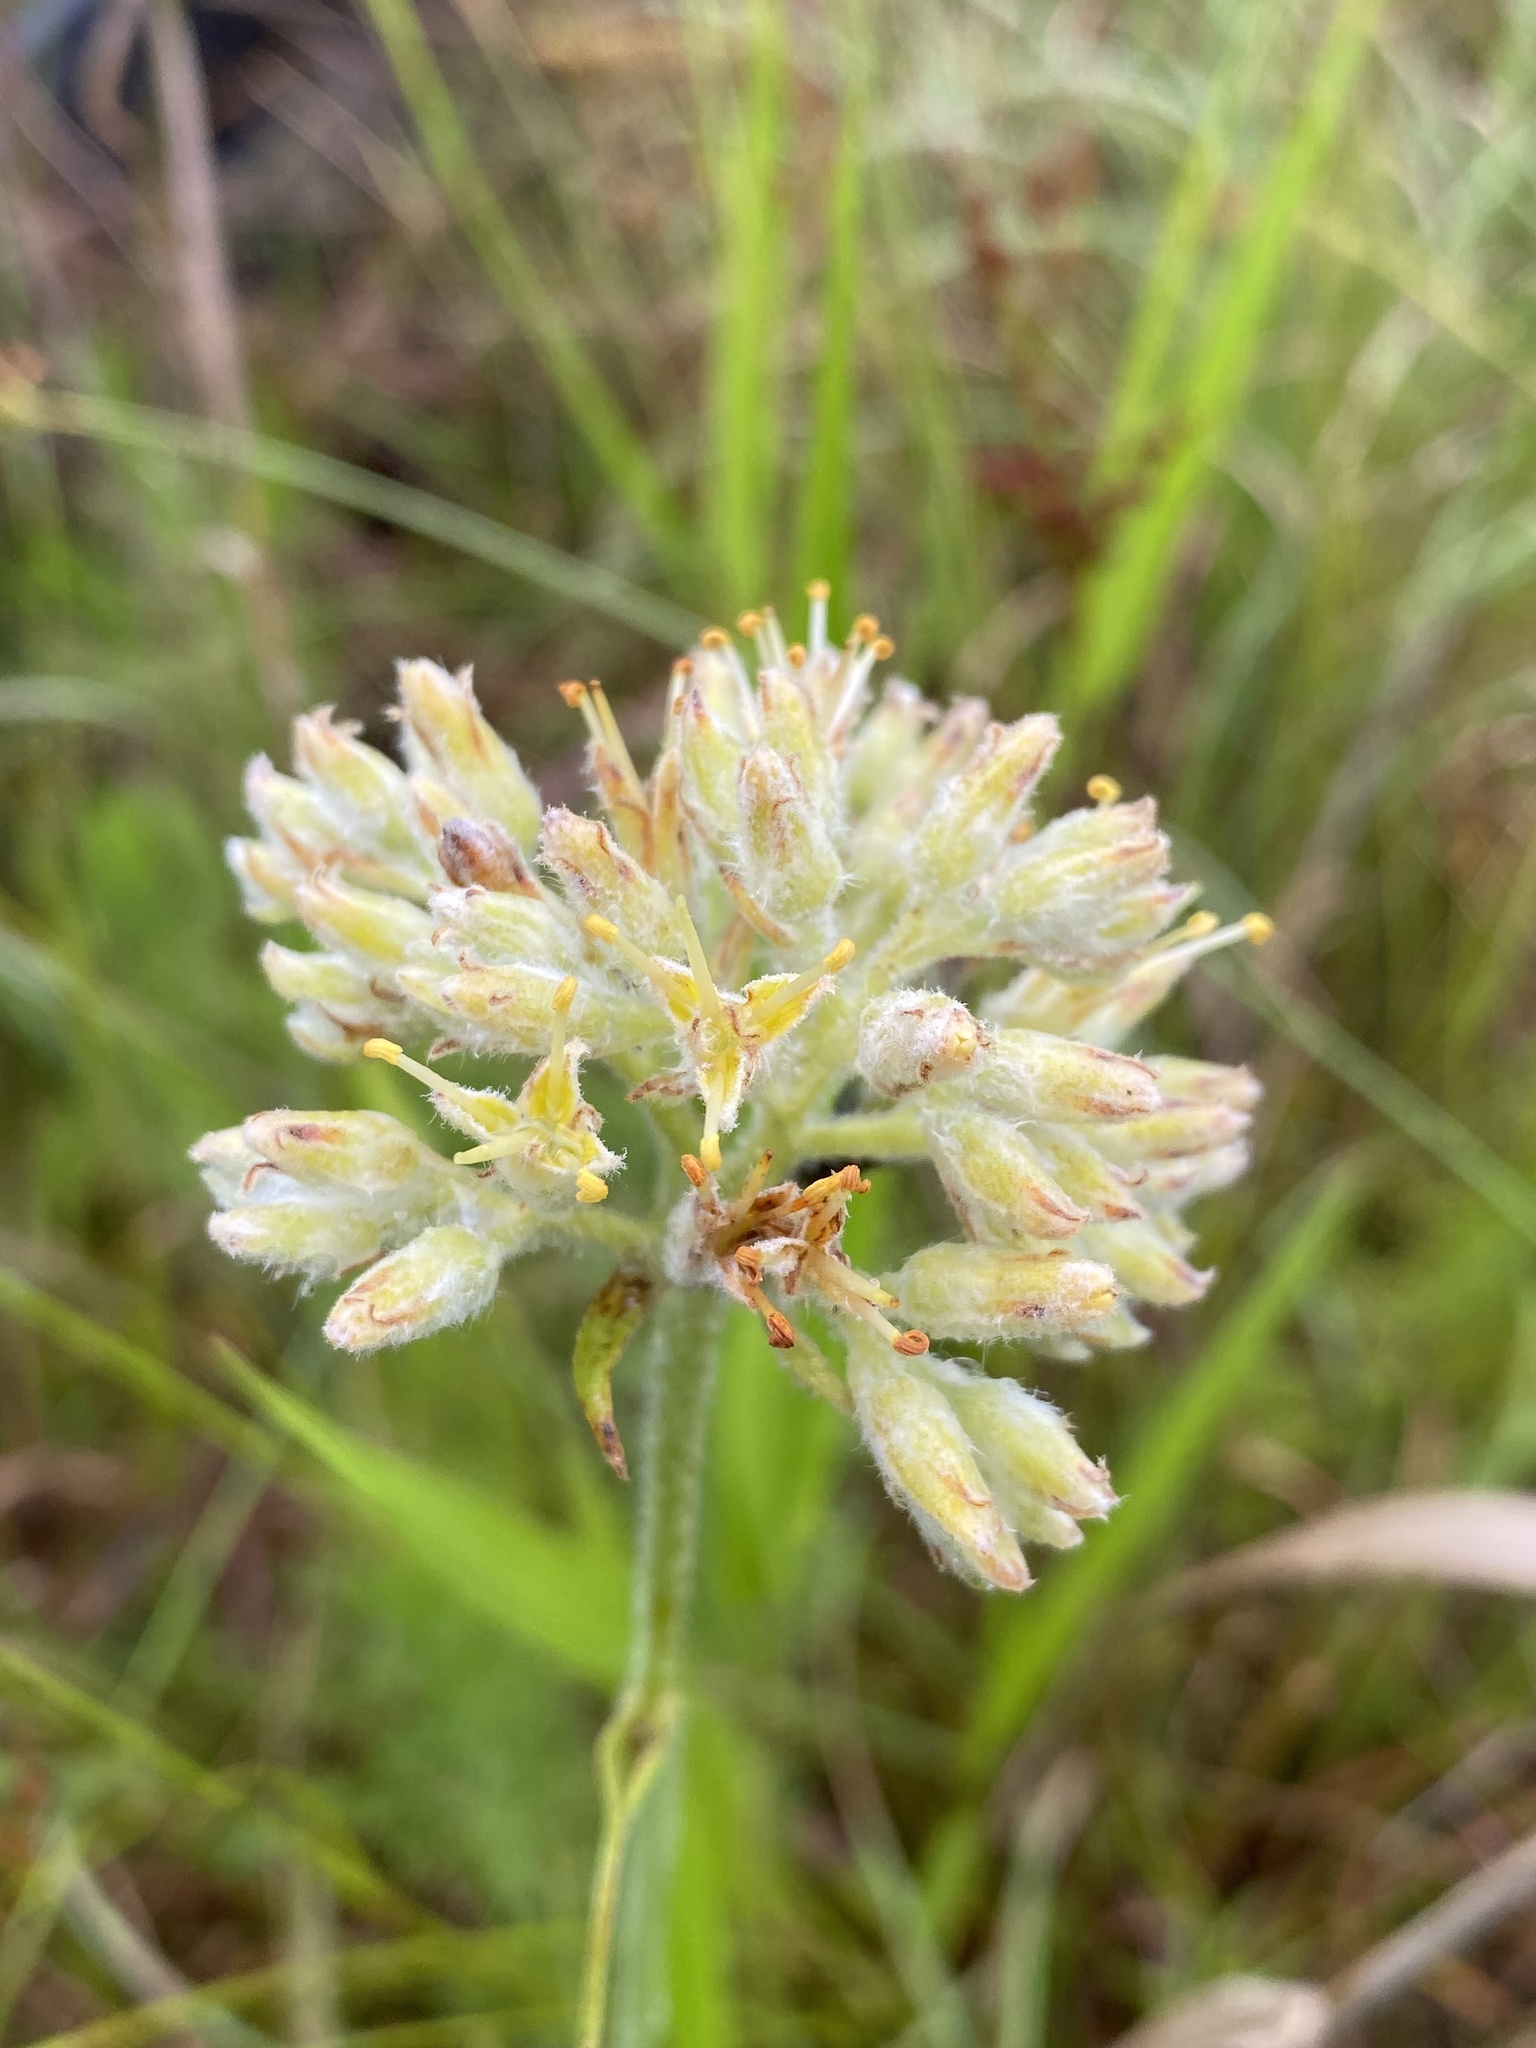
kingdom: Plantae
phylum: Tracheophyta
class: Liliopsida
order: Commelinales
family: Haemodoraceae
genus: Lachnanthes
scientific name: Lachnanthes caroliana
